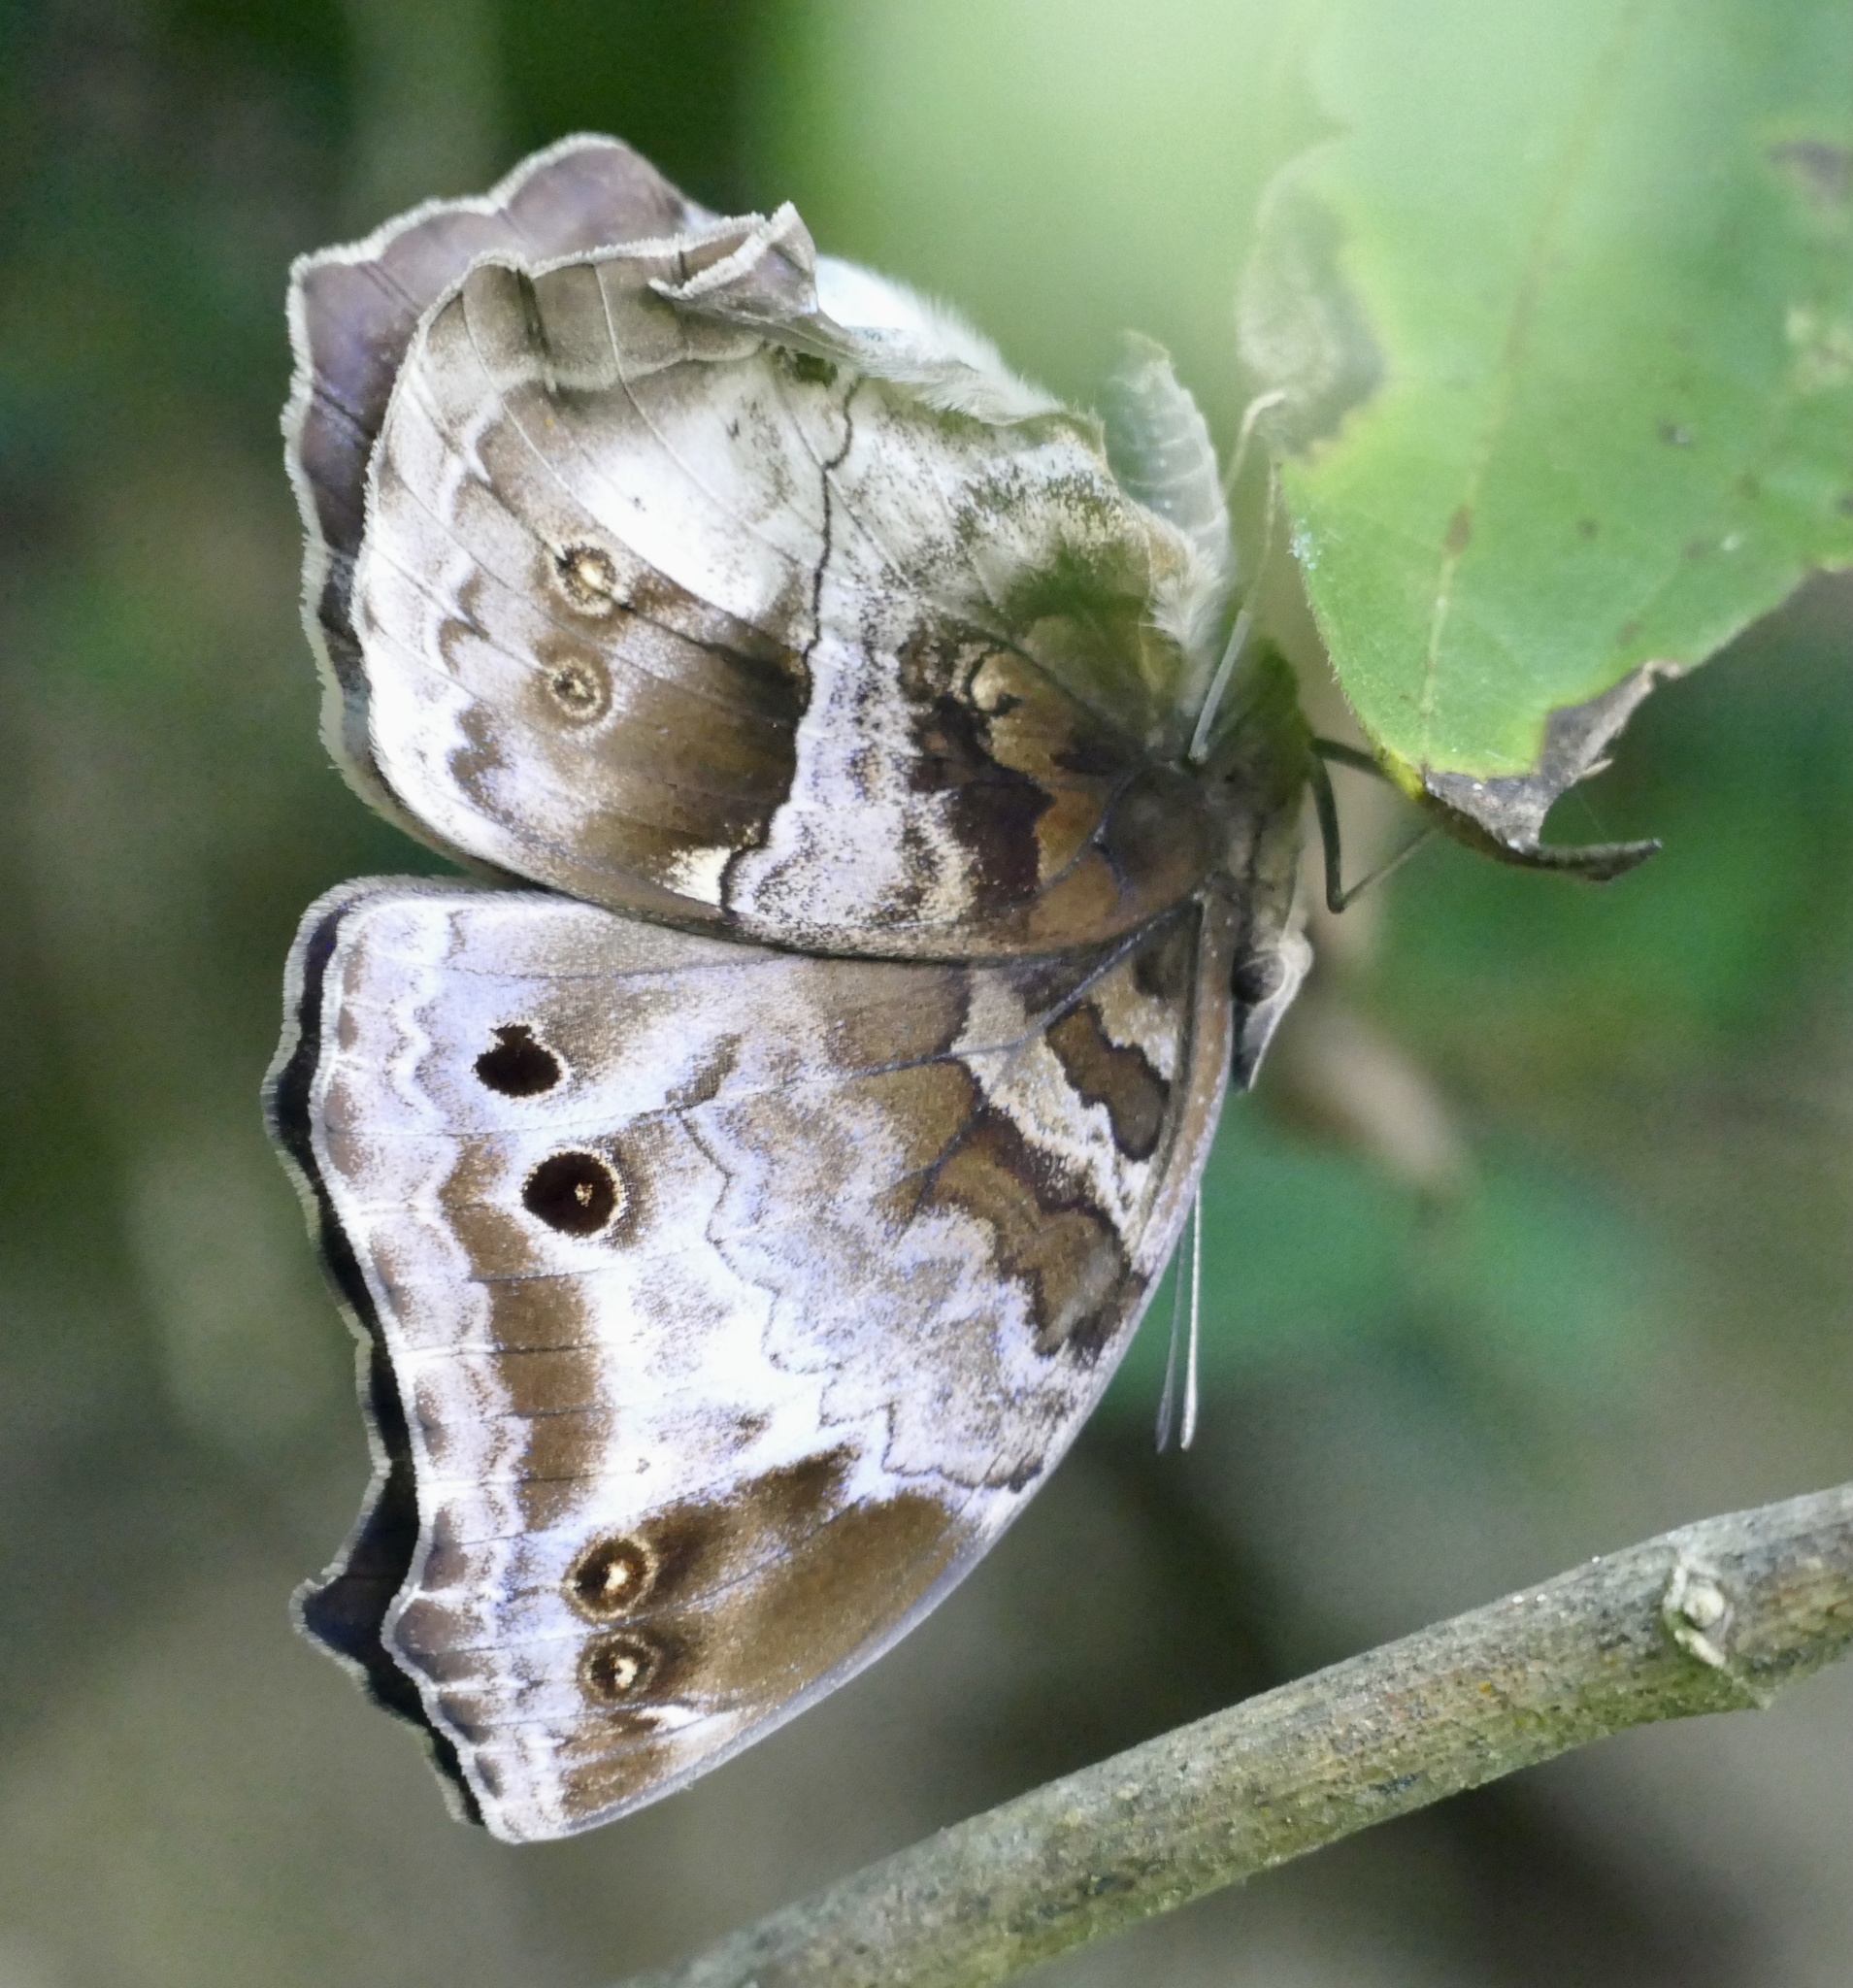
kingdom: Animalia
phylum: Arthropoda
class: Insecta
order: Lepidoptera
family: Nymphalidae
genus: Junonia
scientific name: Junonia
